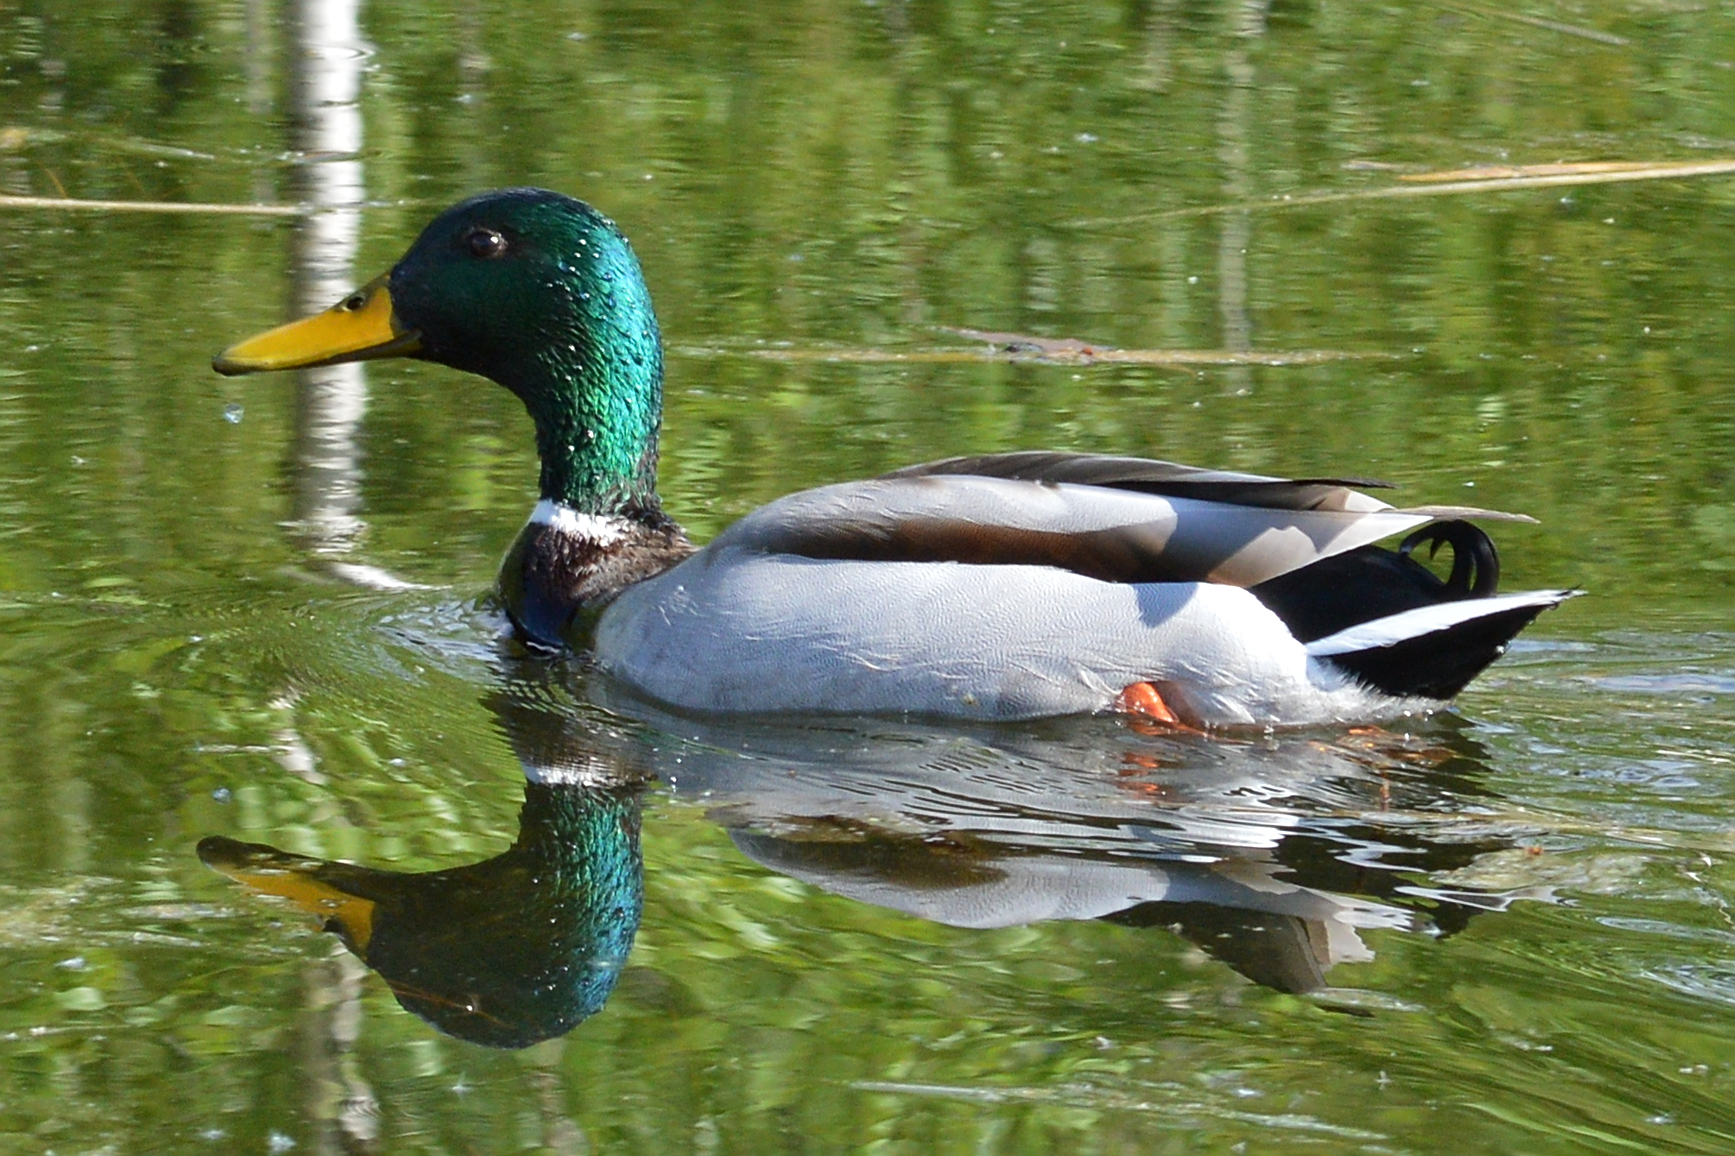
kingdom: Animalia
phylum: Chordata
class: Aves
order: Anseriformes
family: Anatidae
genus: Anas
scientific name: Anas platyrhynchos
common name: Mallard
